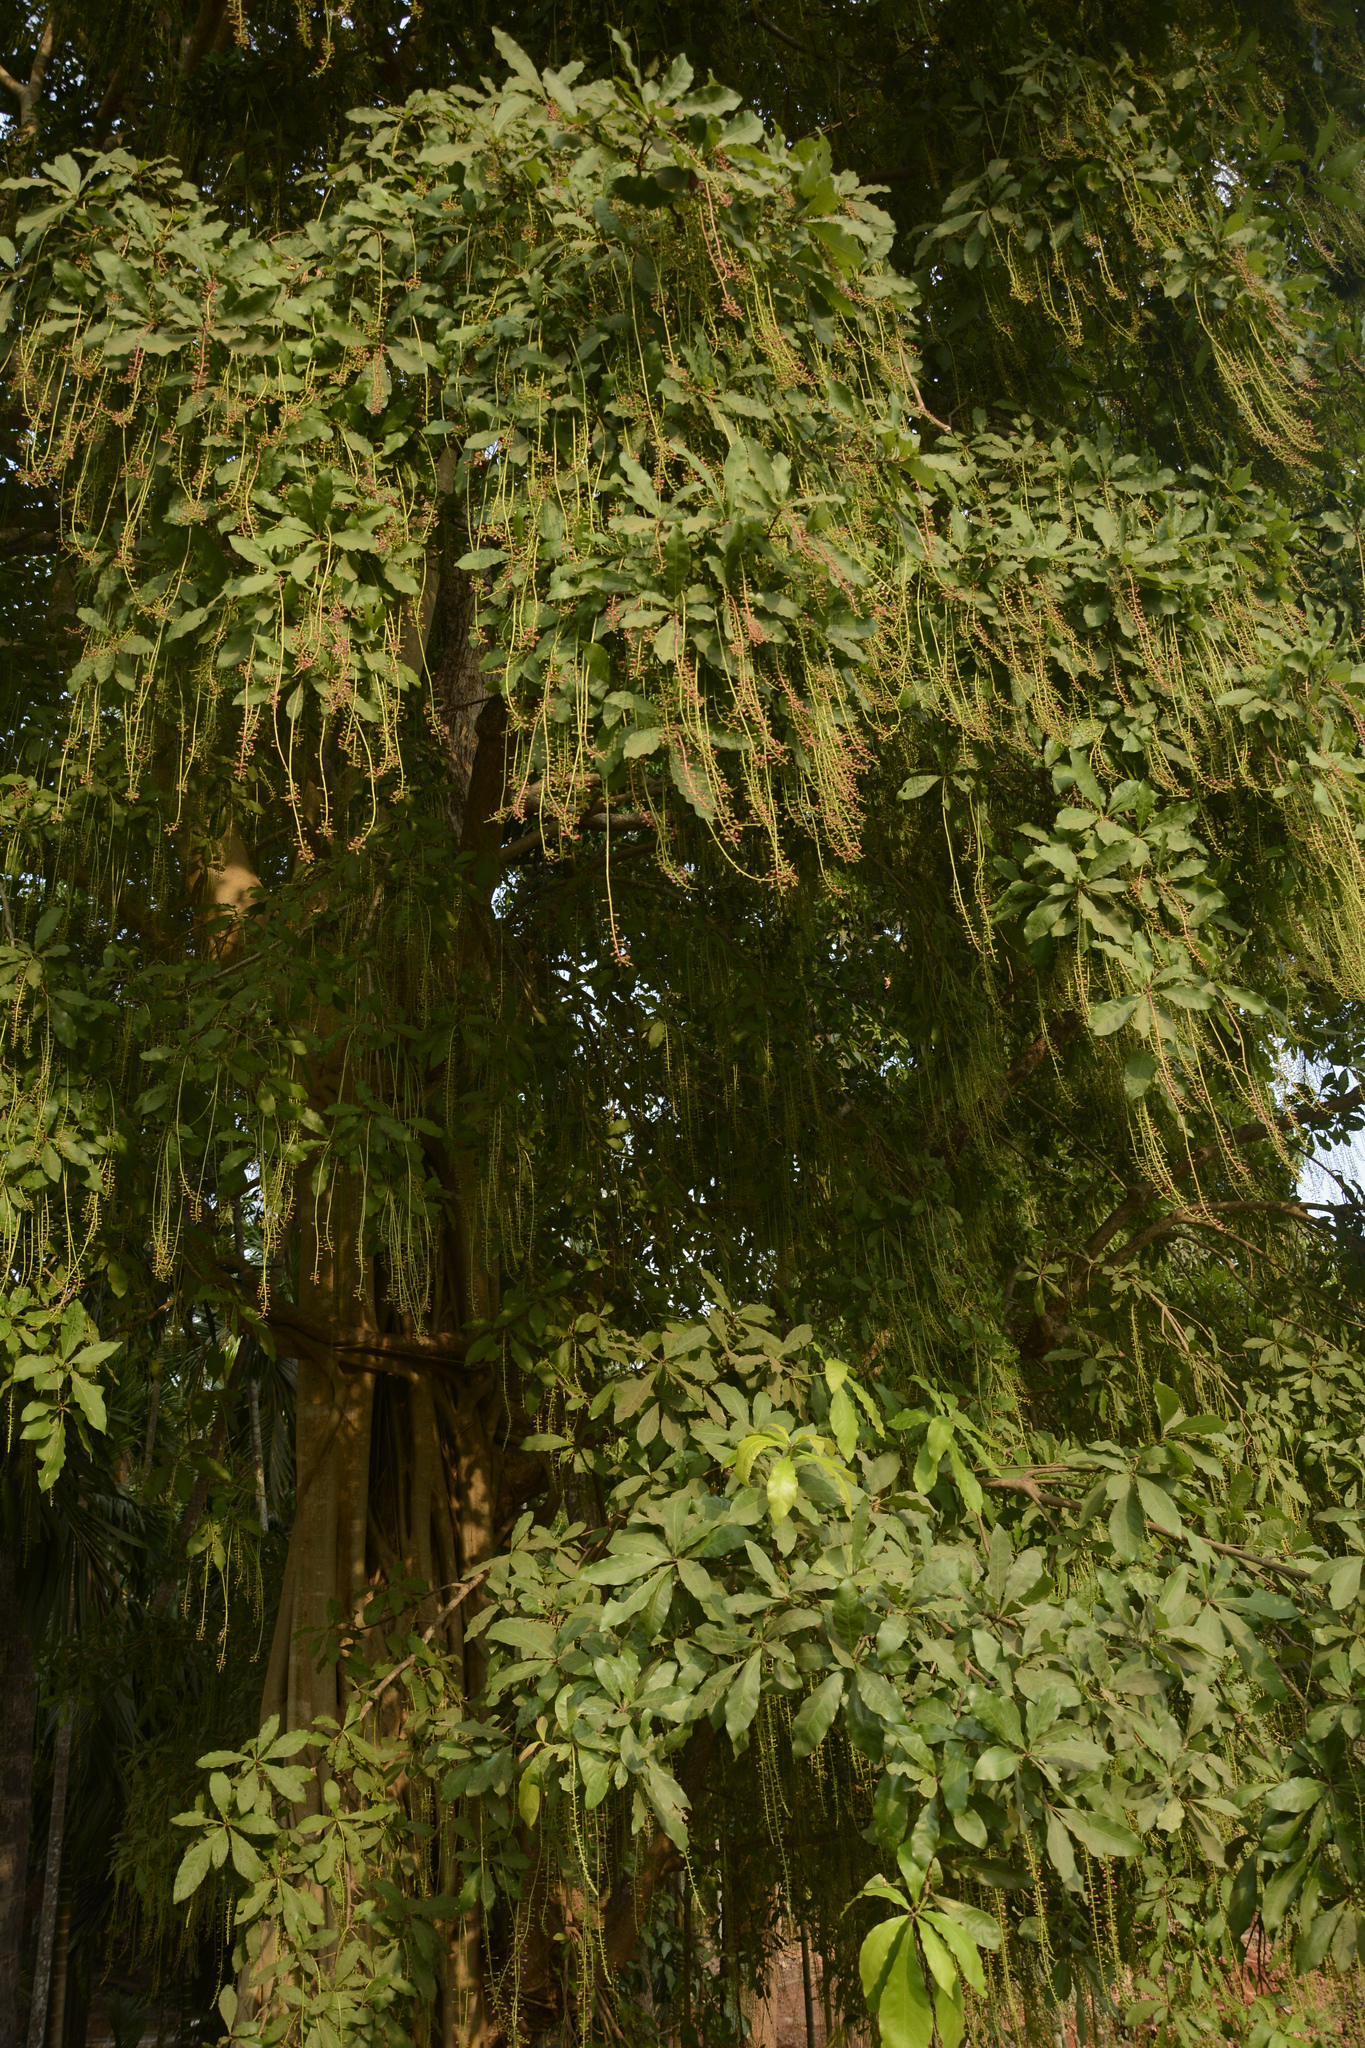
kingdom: Plantae
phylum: Tracheophyta
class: Magnoliopsida
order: Ericales
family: Lecythidaceae
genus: Barringtonia
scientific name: Barringtonia acutangula
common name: Freshwater mangrove
